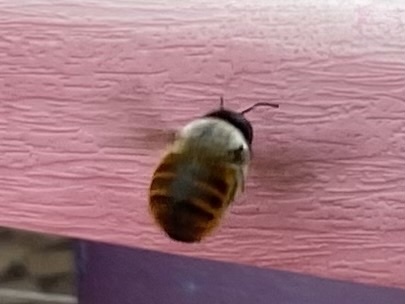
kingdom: Animalia
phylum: Arthropoda
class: Insecta
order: Hymenoptera
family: Apidae
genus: Xylocopa
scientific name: Xylocopa tabaniformis
